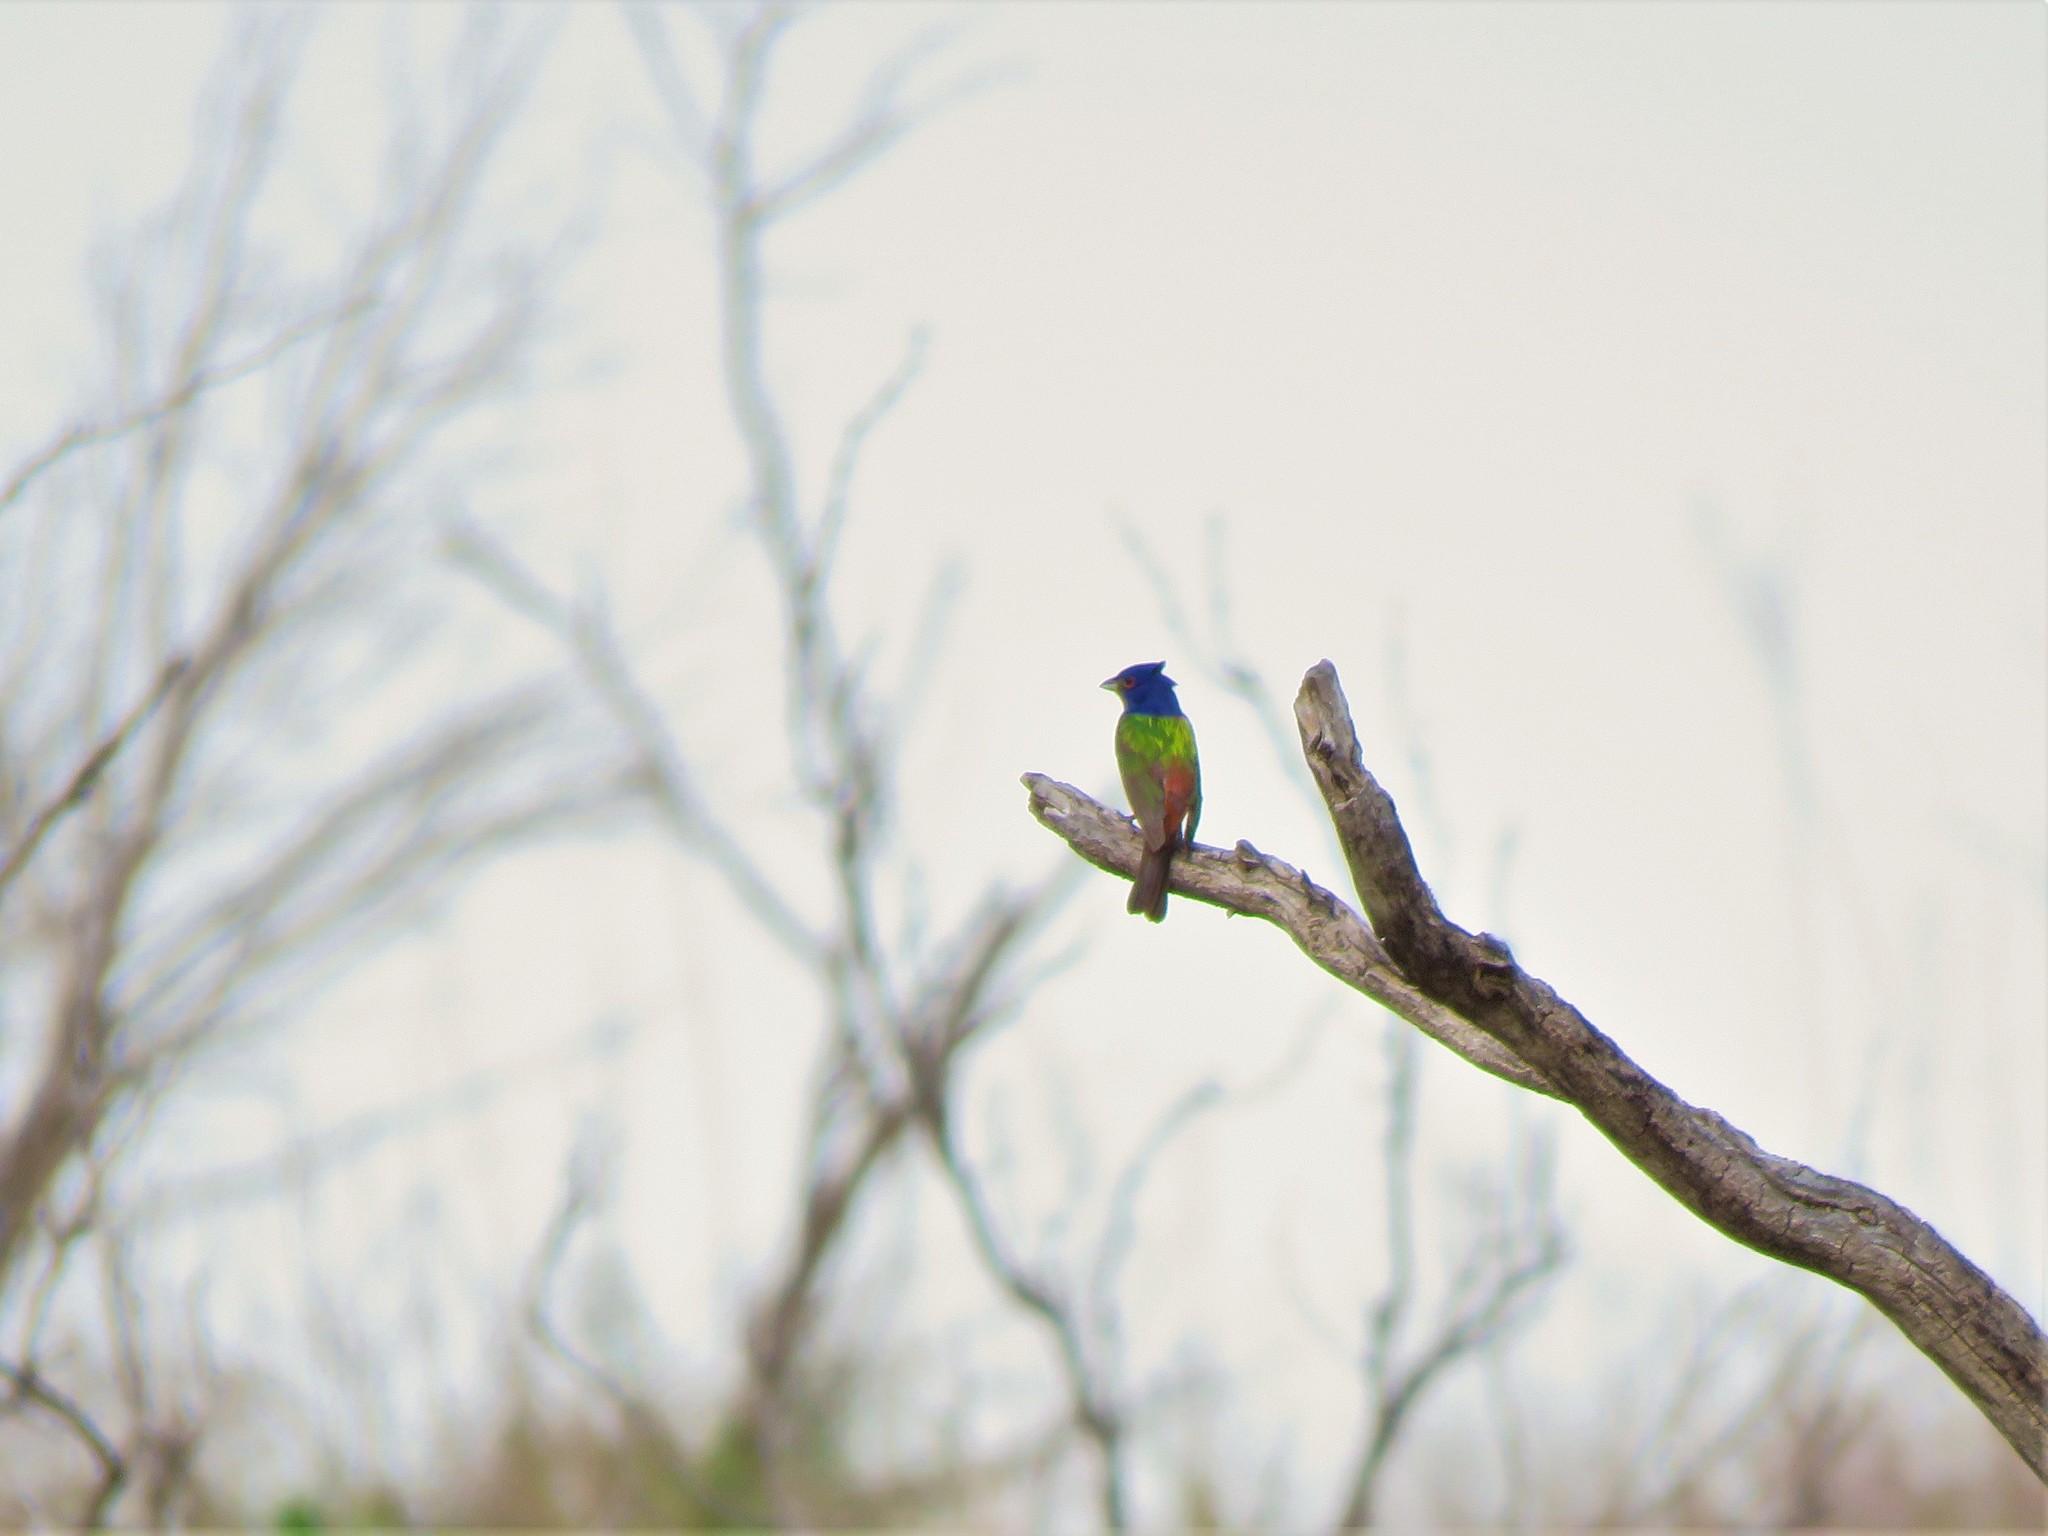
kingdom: Animalia
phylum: Chordata
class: Aves
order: Passeriformes
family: Cardinalidae
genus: Passerina
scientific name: Passerina ciris
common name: Painted bunting
